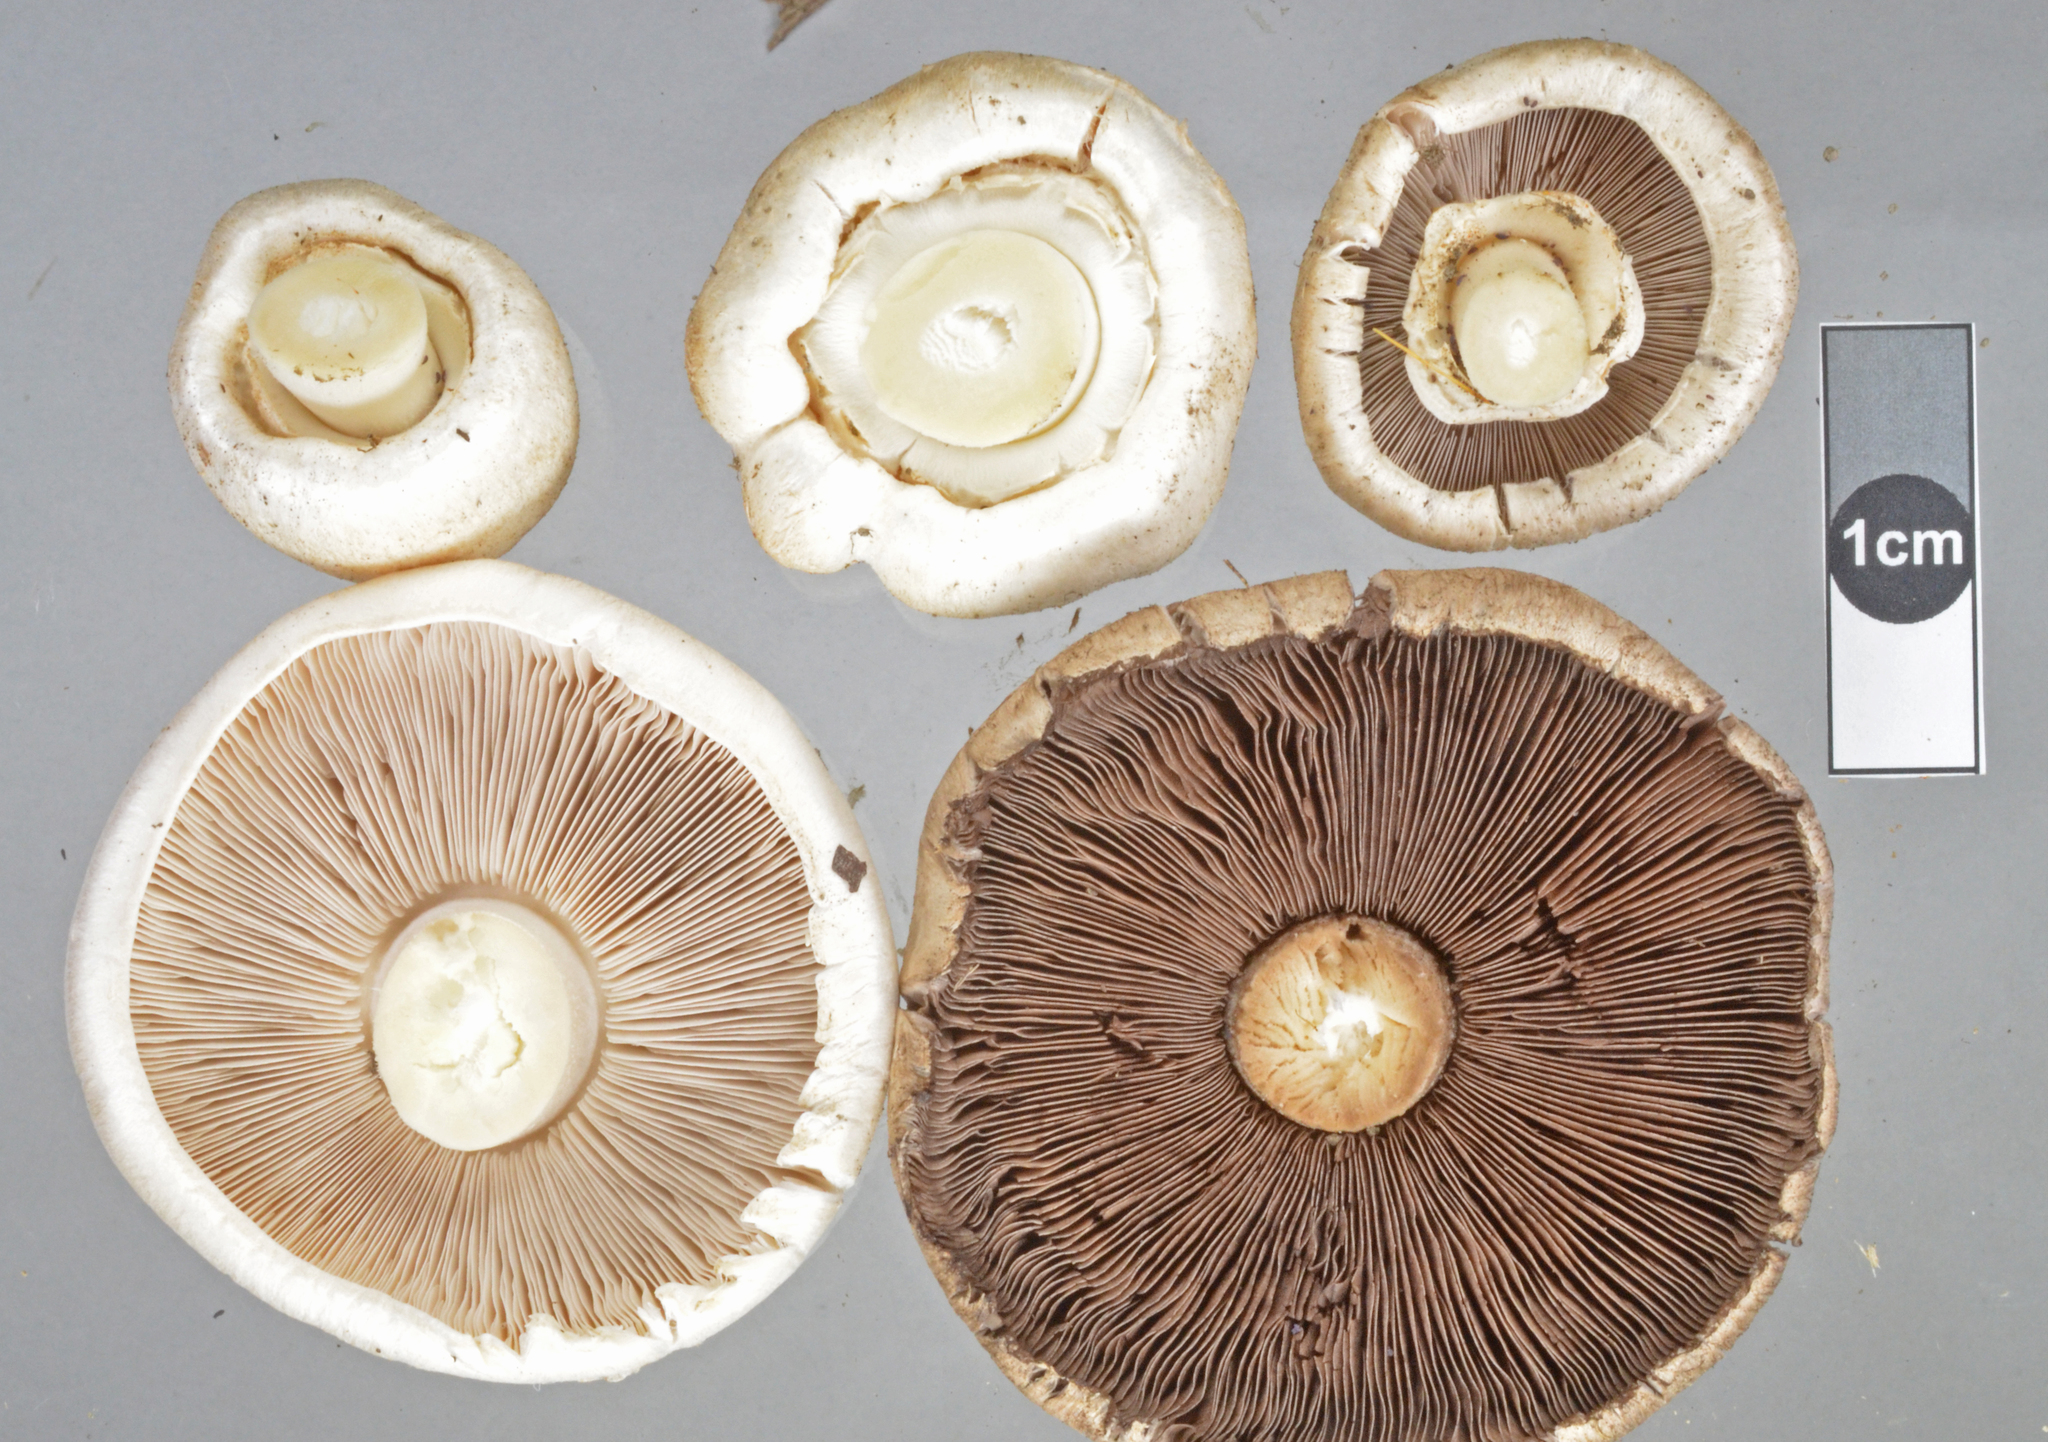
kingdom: Fungi
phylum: Basidiomycota
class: Agaricomycetes
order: Agaricales
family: Agaricaceae
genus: Agaricus
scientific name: Agaricus californicus
